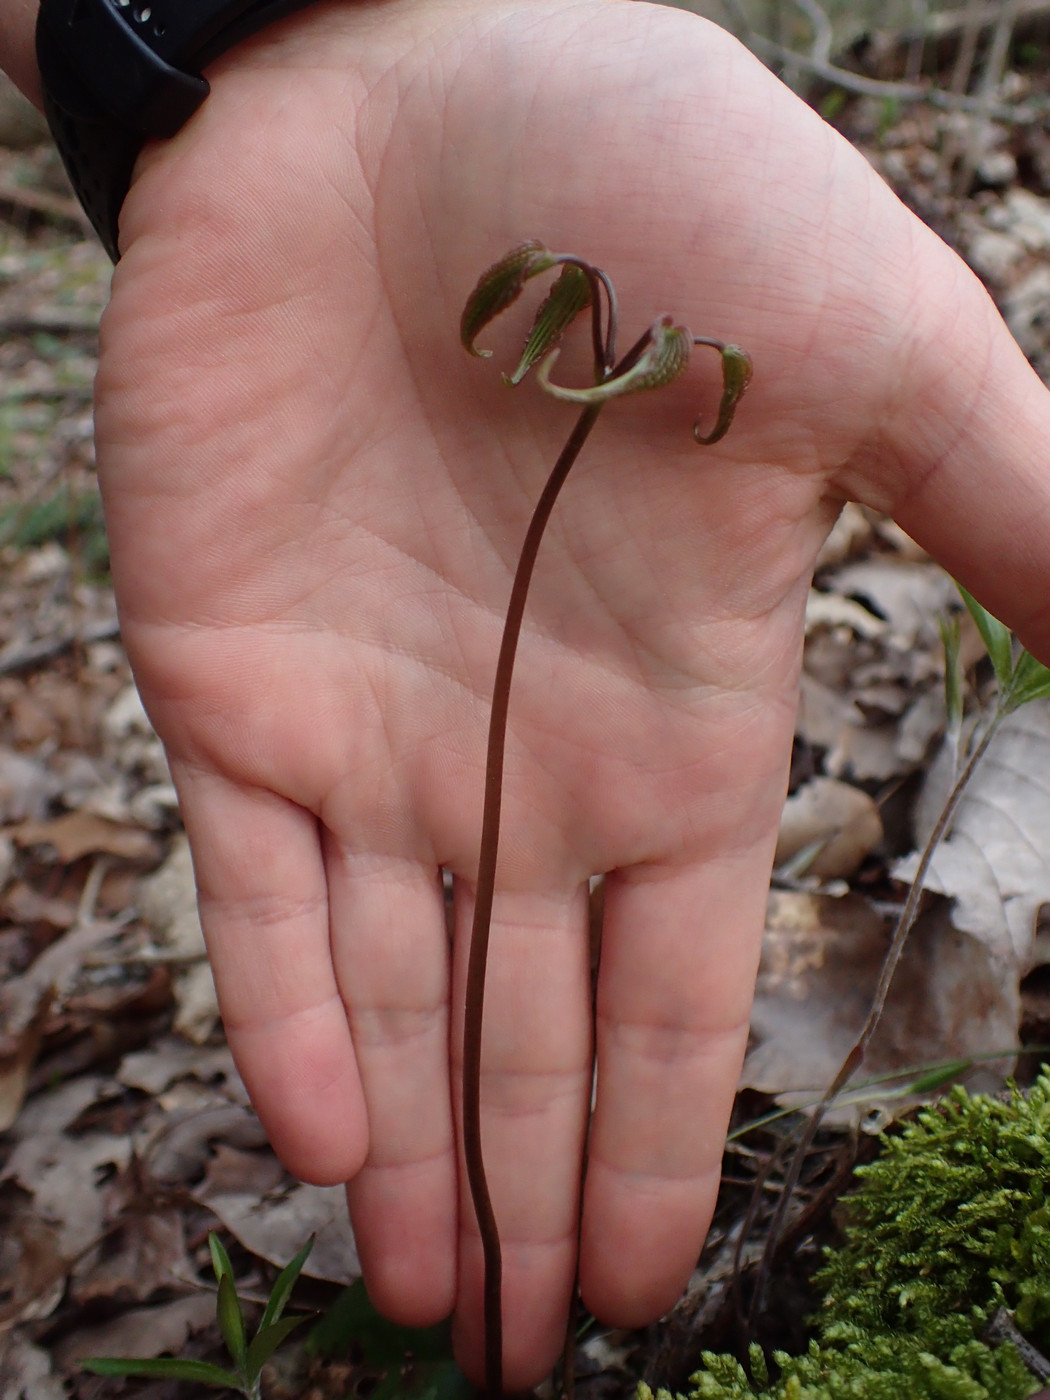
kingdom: Plantae
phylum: Tracheophyta
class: Liliopsida
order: Dioscoreales
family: Dioscoreaceae
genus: Dioscorea
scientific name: Dioscorea villosa
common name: Wild yam
